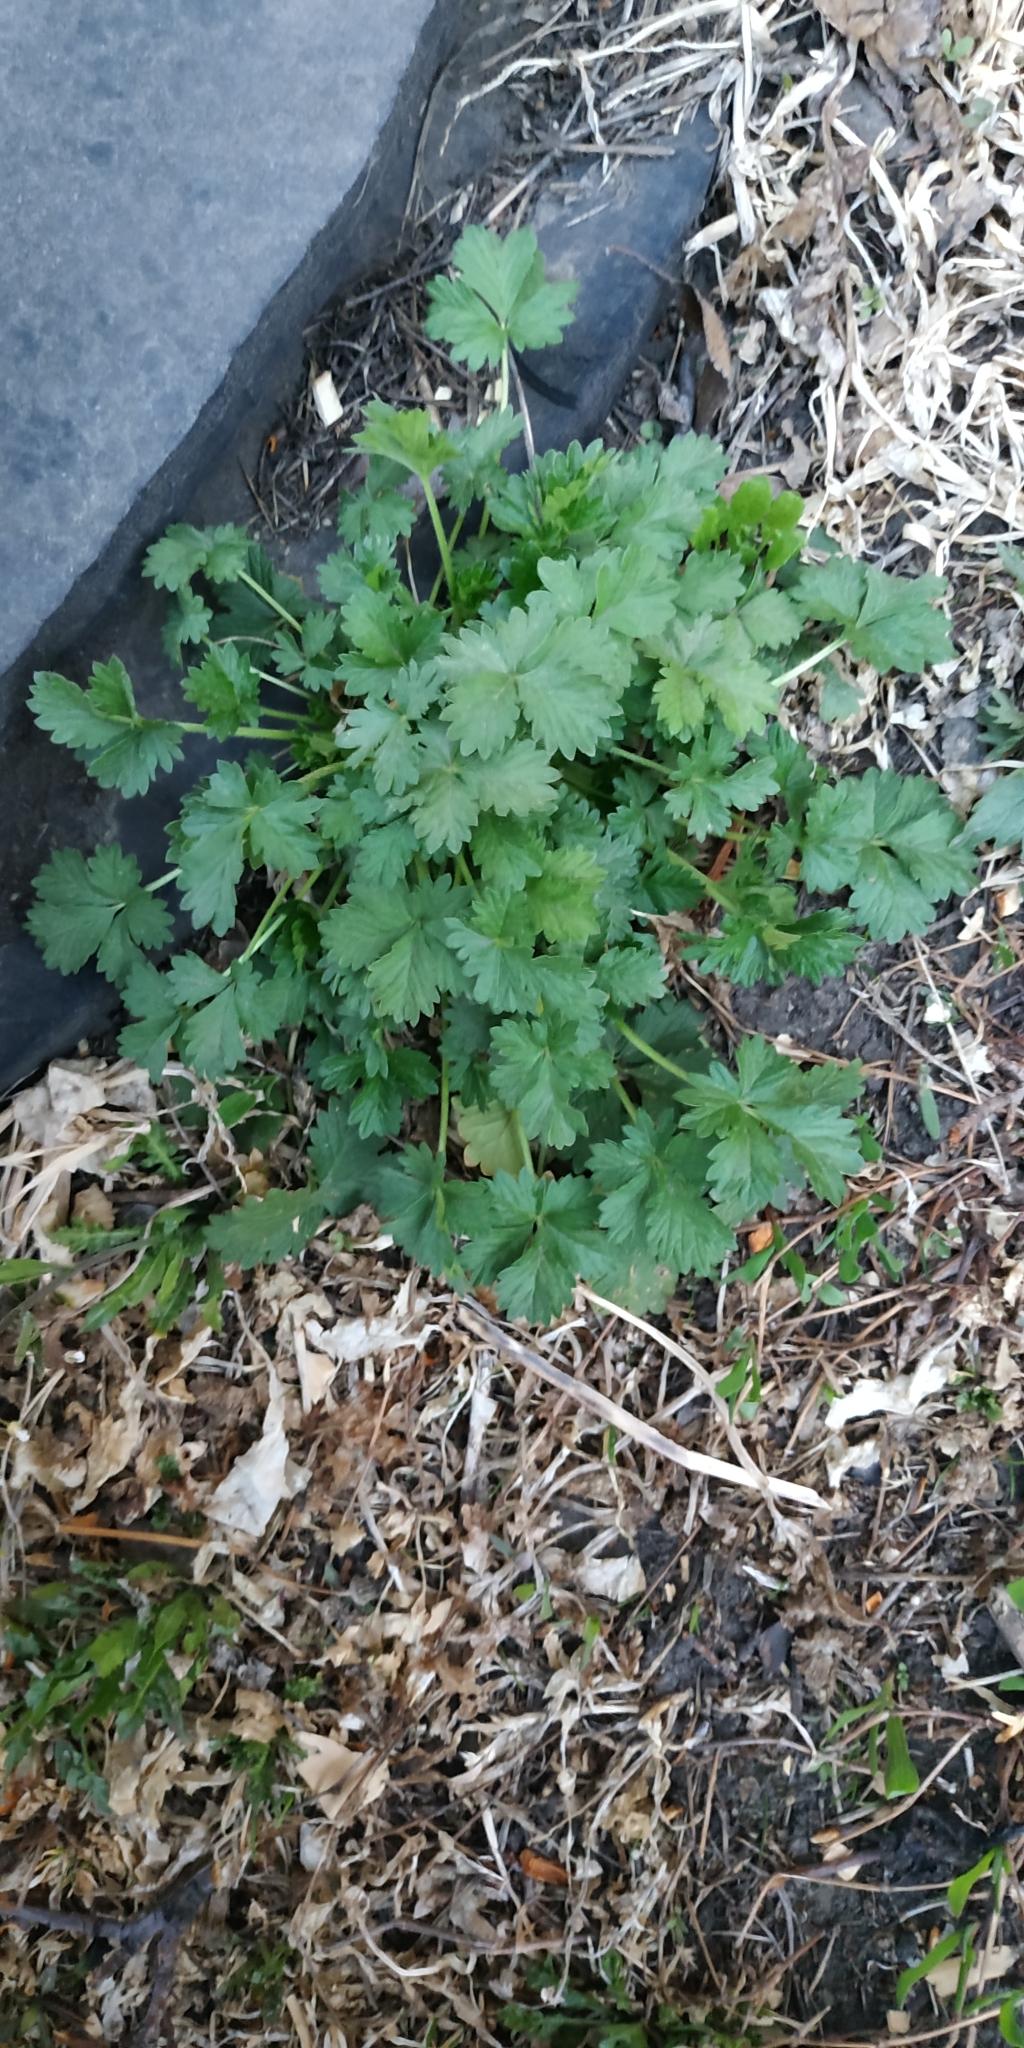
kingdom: Plantae
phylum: Tracheophyta
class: Magnoliopsida
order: Rosales
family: Rosaceae
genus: Potentilla
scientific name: Potentilla norvegica
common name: Ternate-leaved cinquefoil
